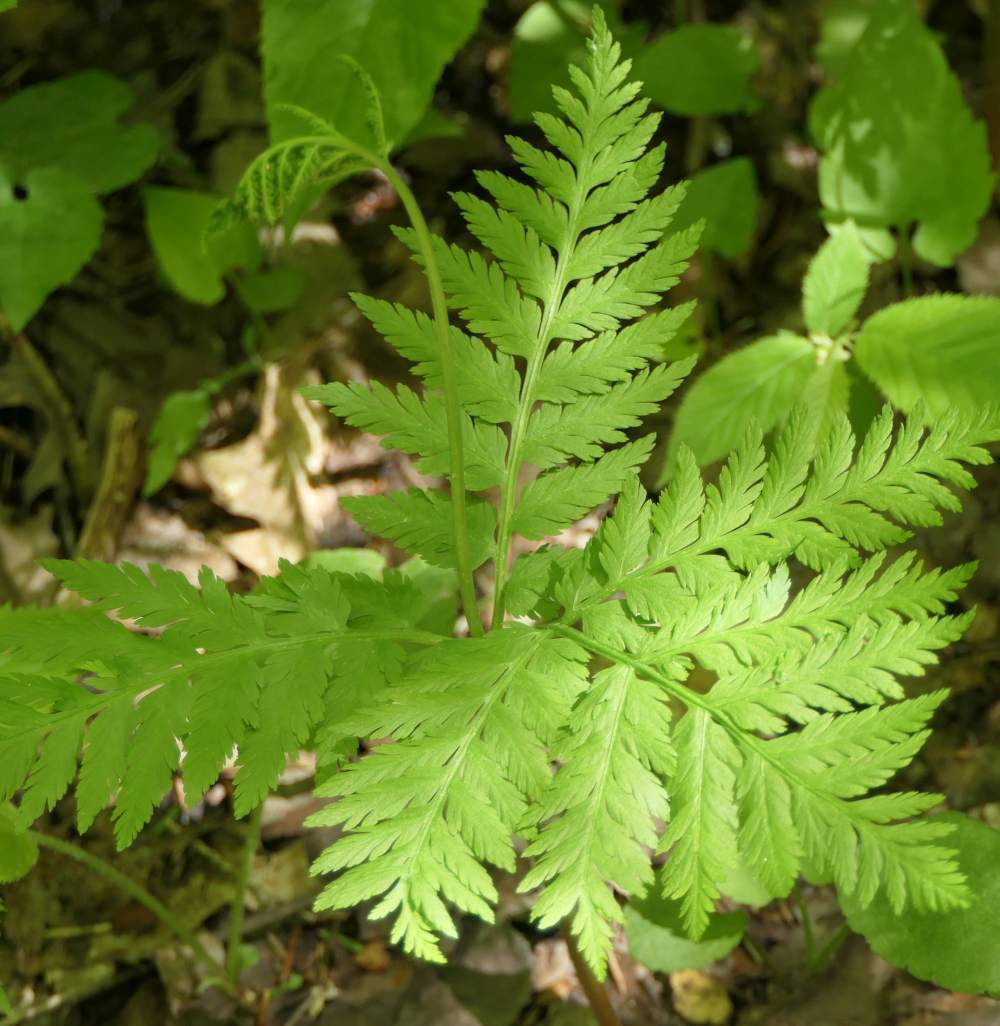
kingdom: Plantae
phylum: Tracheophyta
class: Polypodiopsida
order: Ophioglossales
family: Ophioglossaceae
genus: Botrypus
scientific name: Botrypus virginianus
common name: Common grapefern
